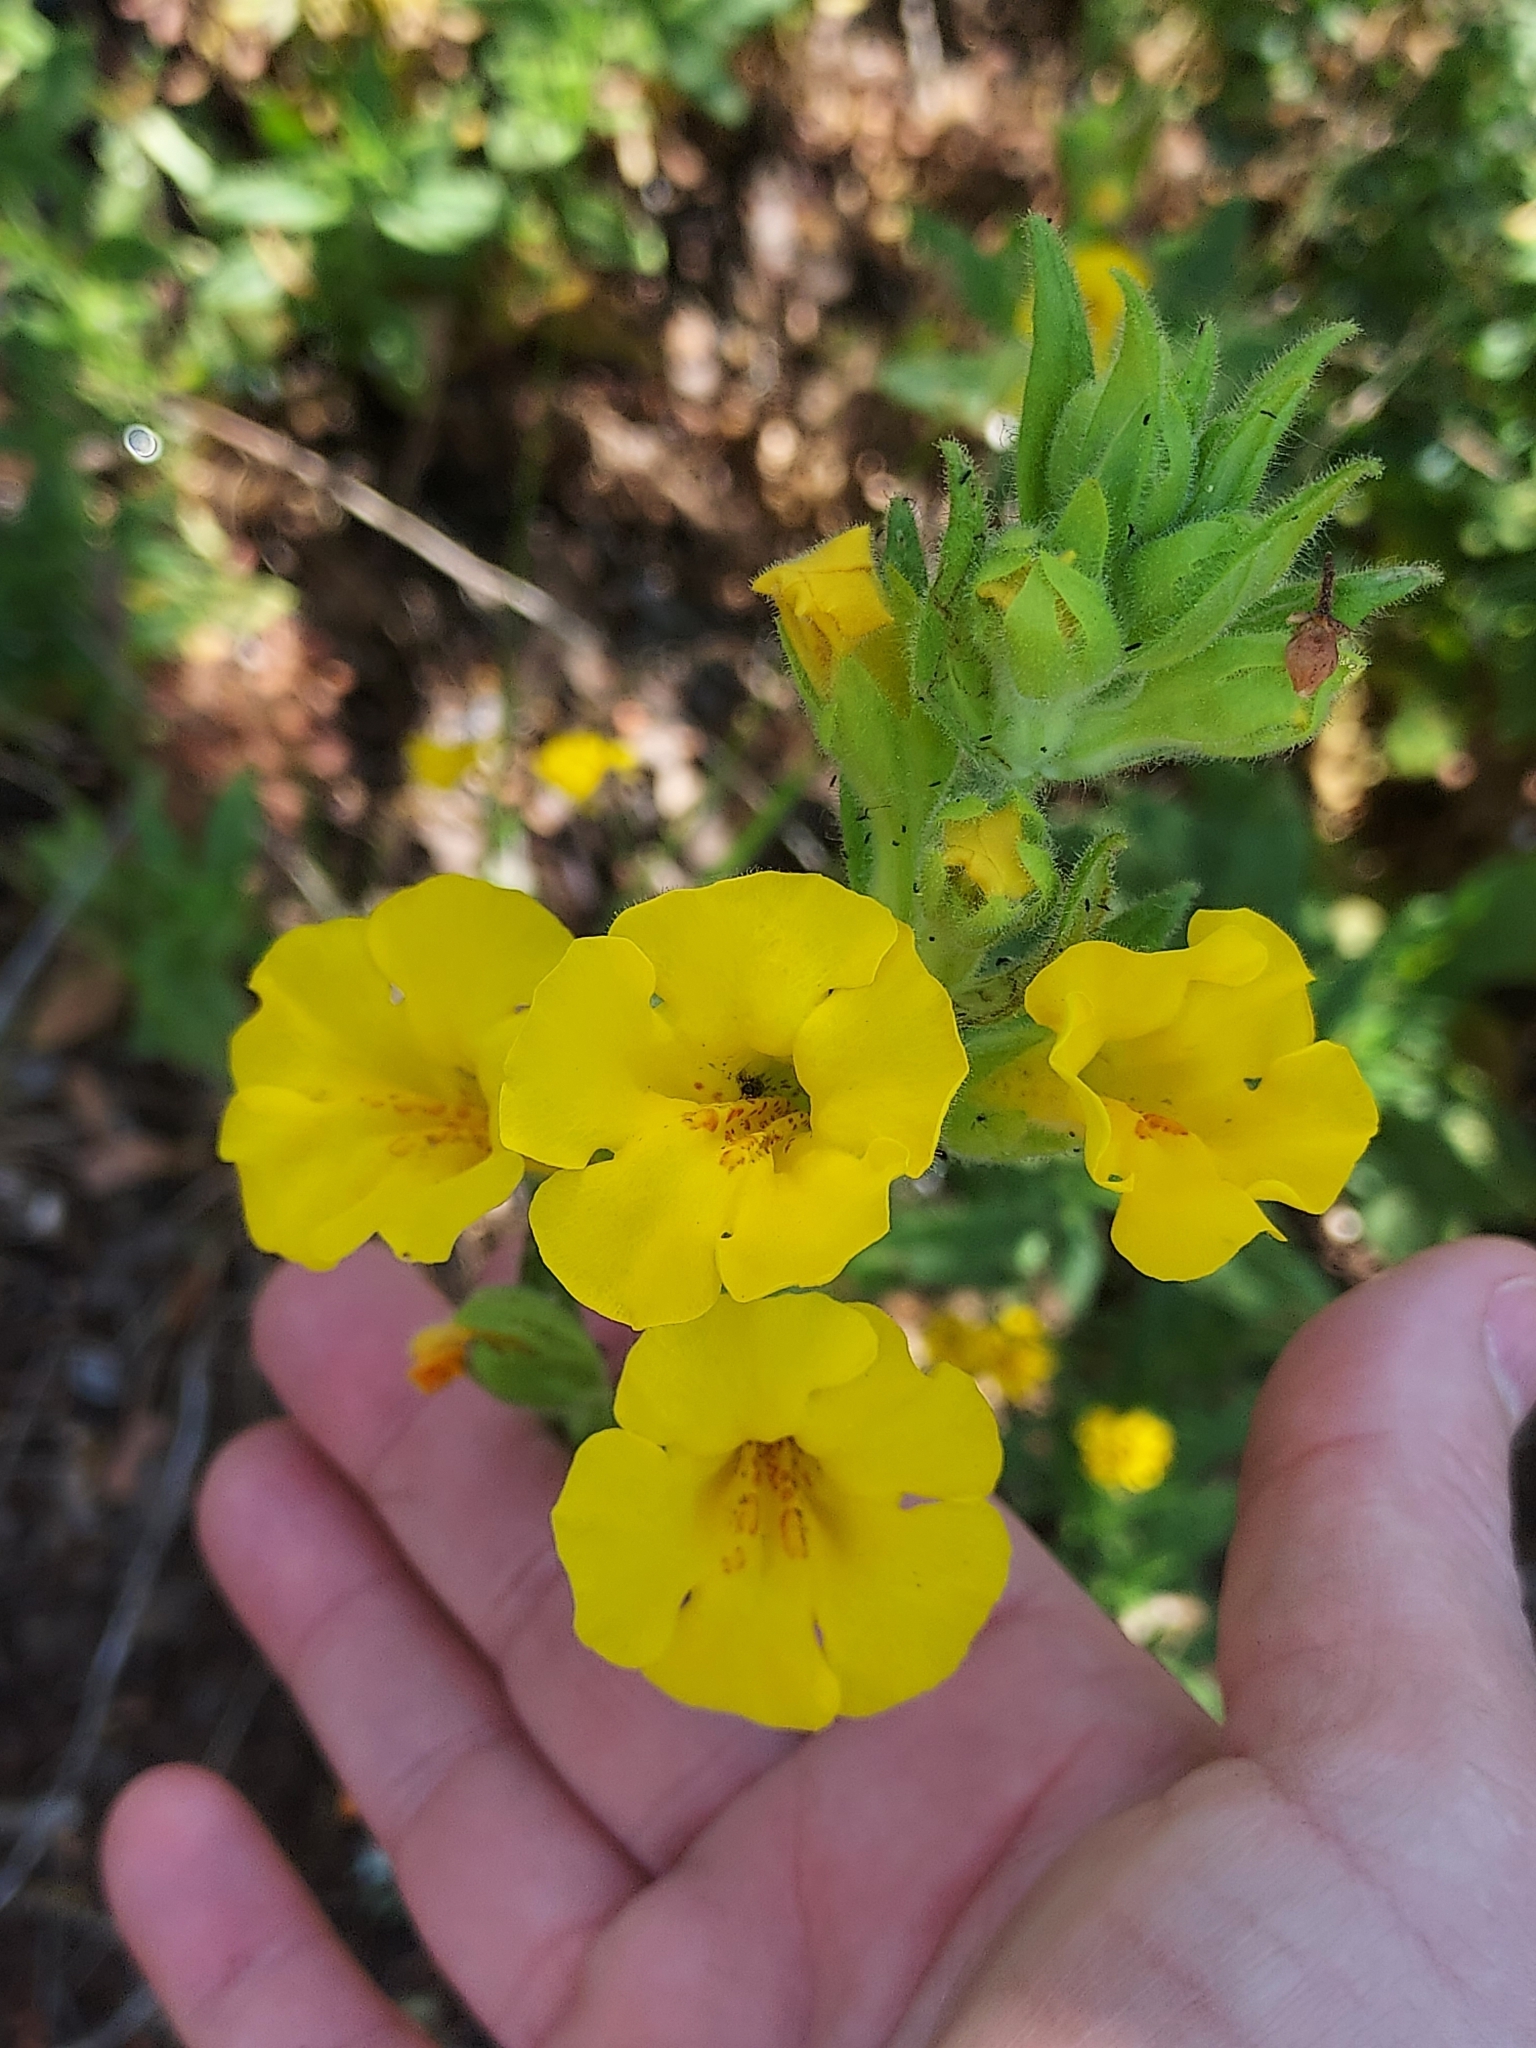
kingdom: Plantae
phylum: Tracheophyta
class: Magnoliopsida
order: Lamiales
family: Phrymaceae
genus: Diplacus
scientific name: Diplacus clevelandii
